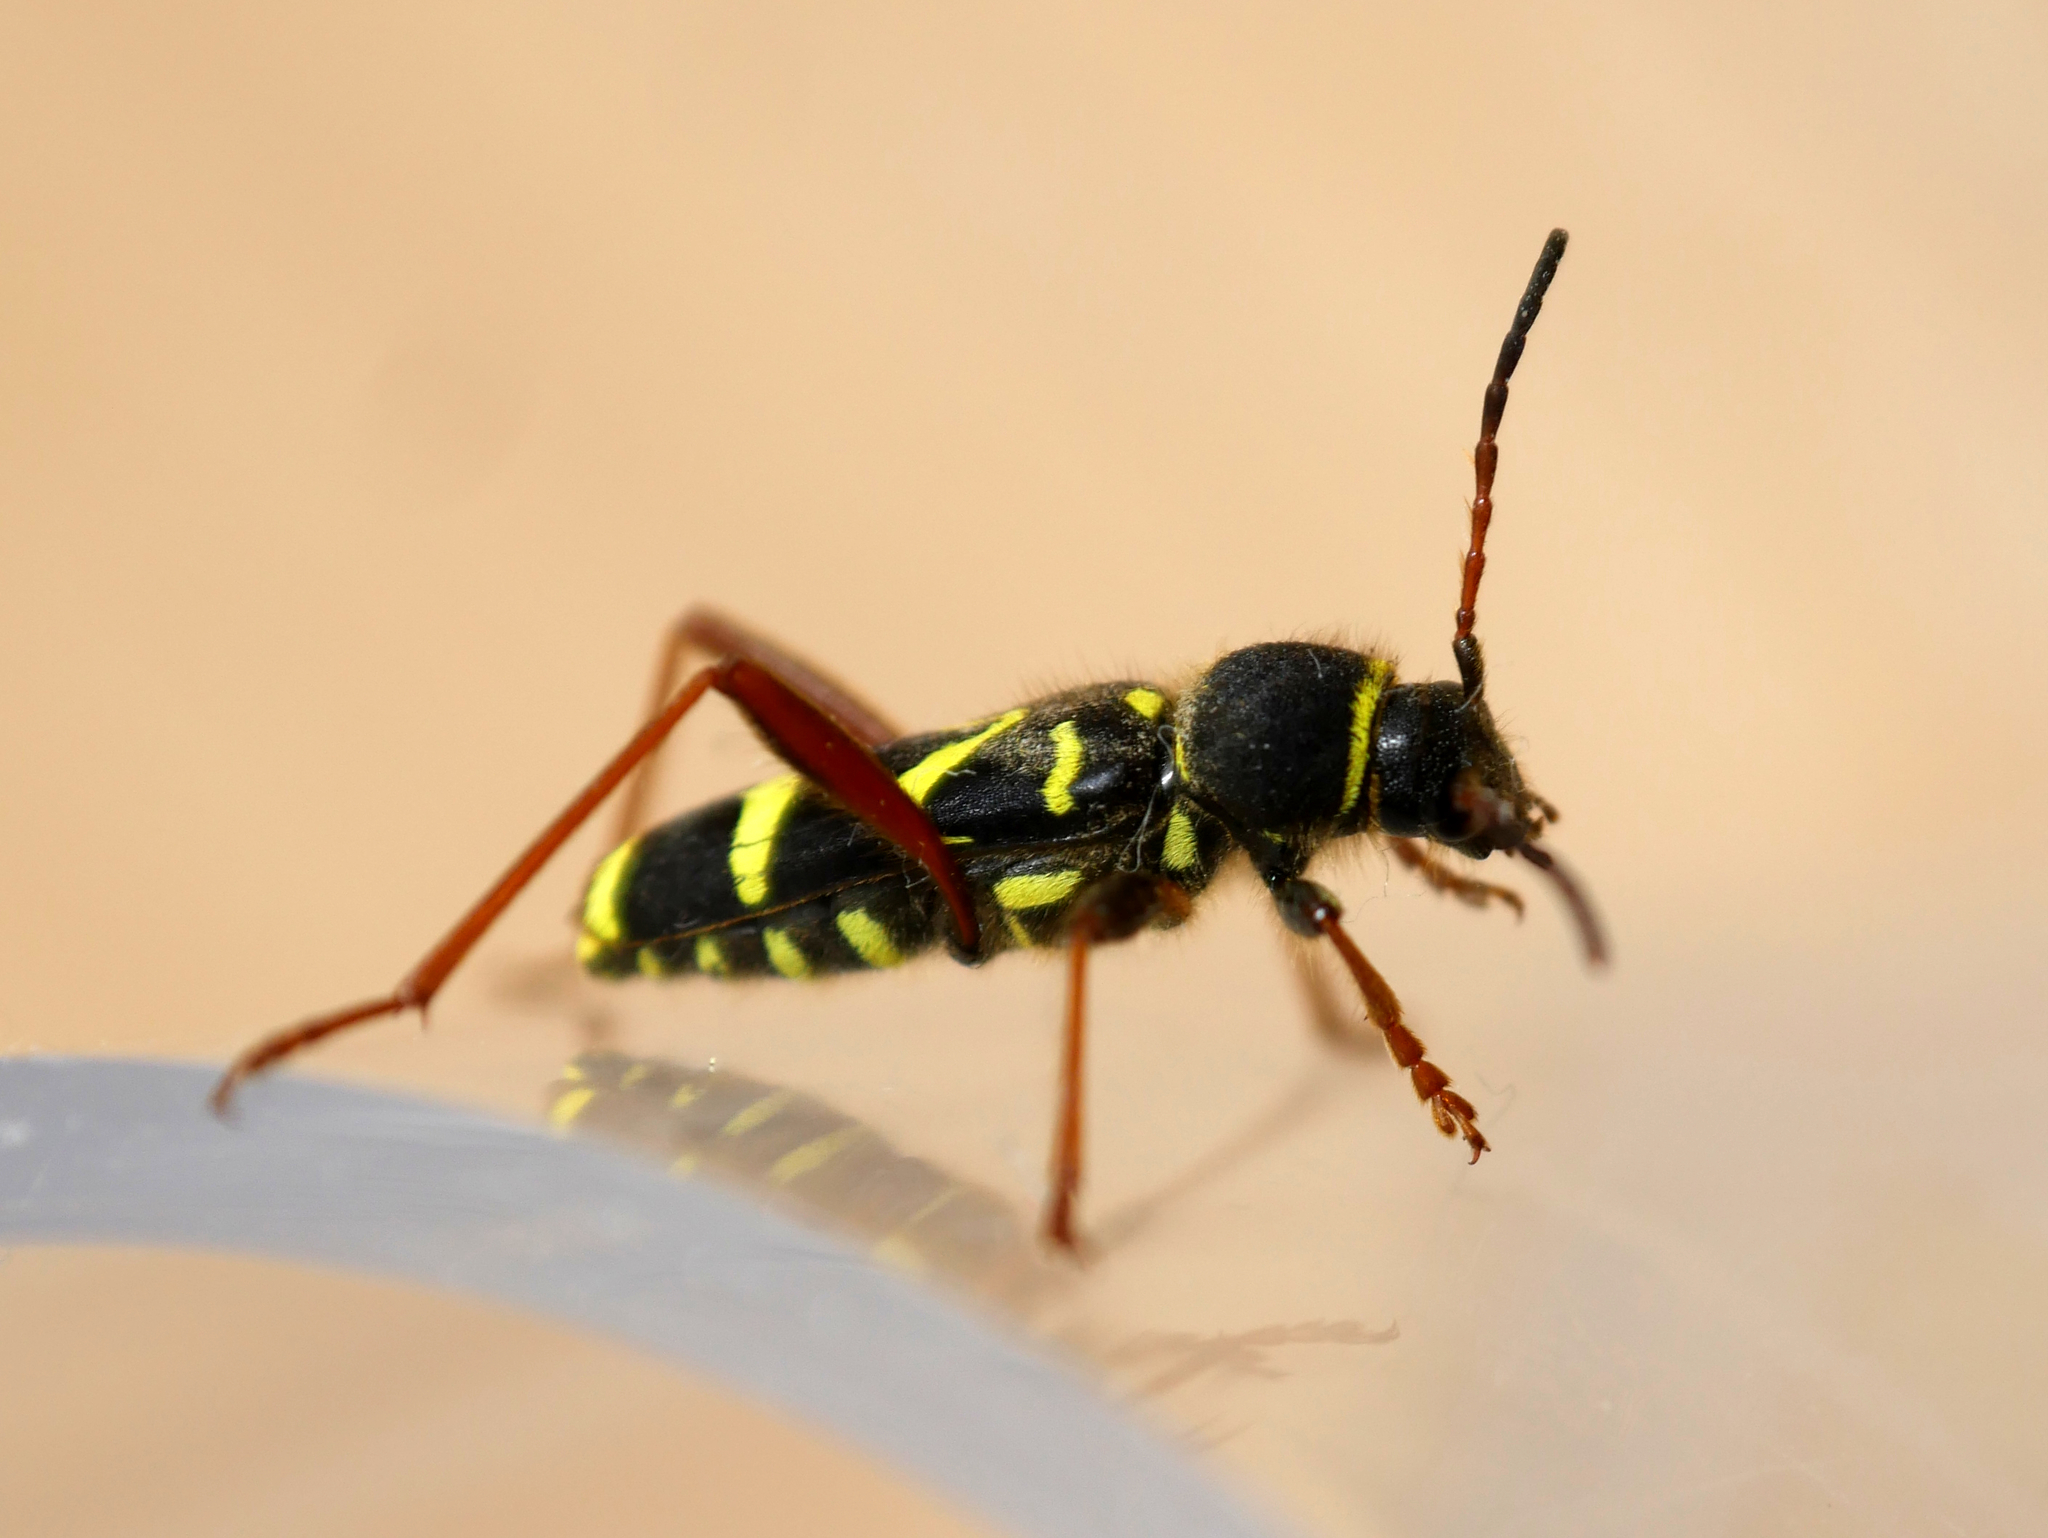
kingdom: Animalia
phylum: Arthropoda
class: Insecta
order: Coleoptera
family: Cerambycidae
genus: Clytus
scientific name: Clytus arietis
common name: Wasp beetle
